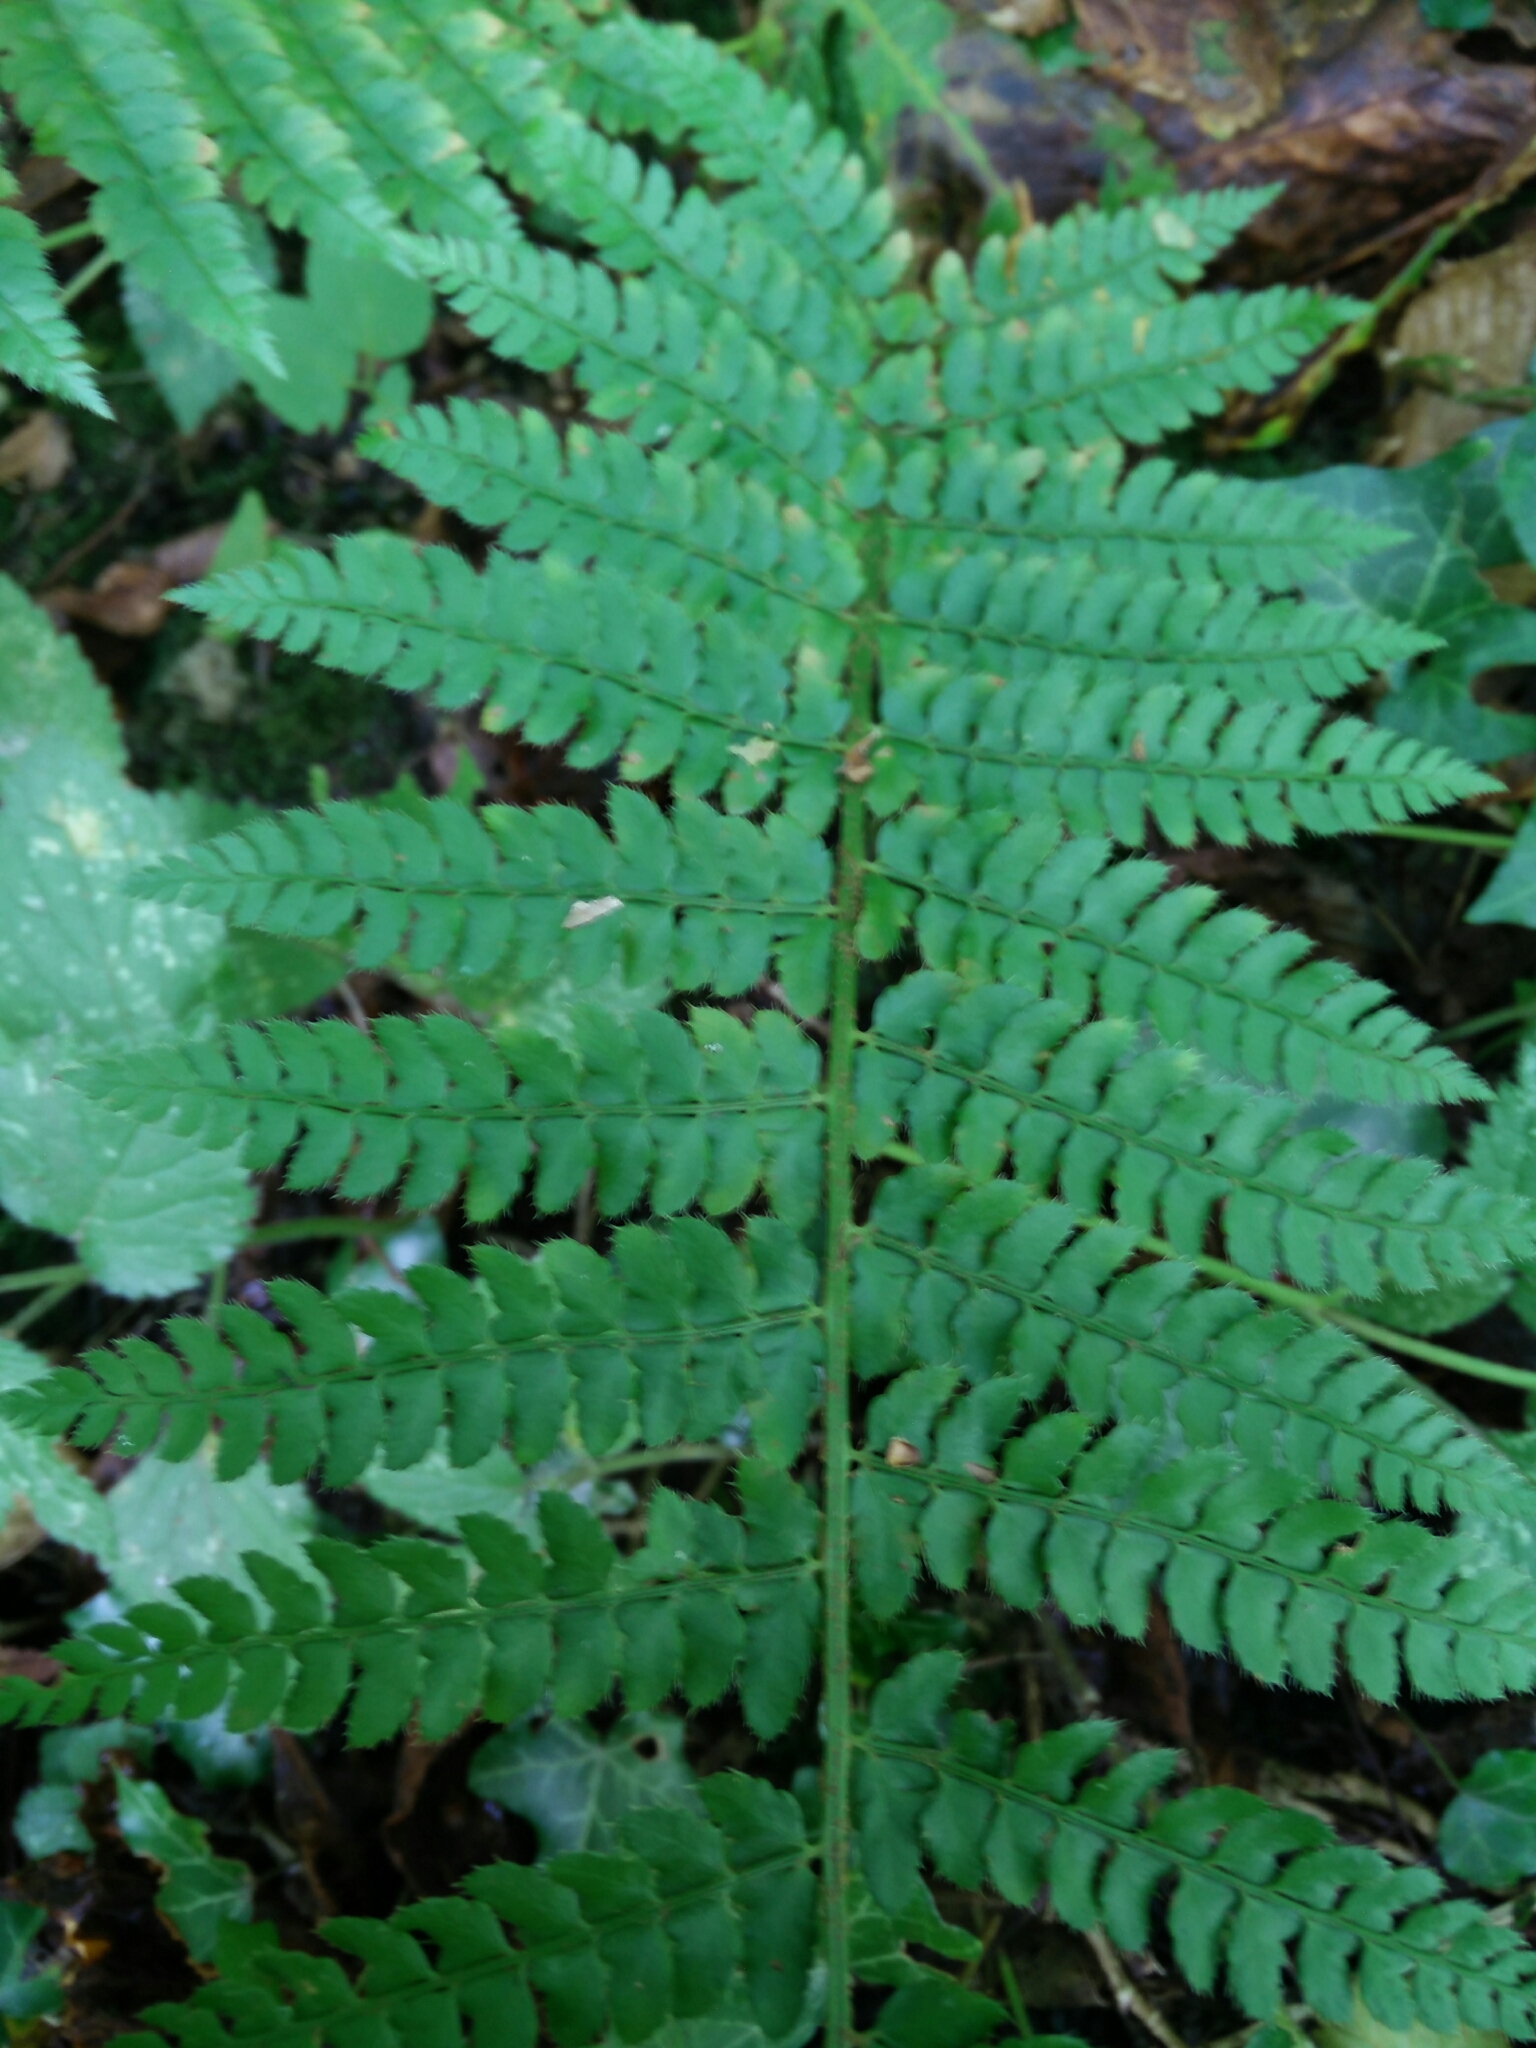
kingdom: Plantae
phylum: Tracheophyta
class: Polypodiopsida
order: Polypodiales
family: Dryopteridaceae
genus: Polystichum
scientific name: Polystichum setiferum
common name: Soft shield-fern
